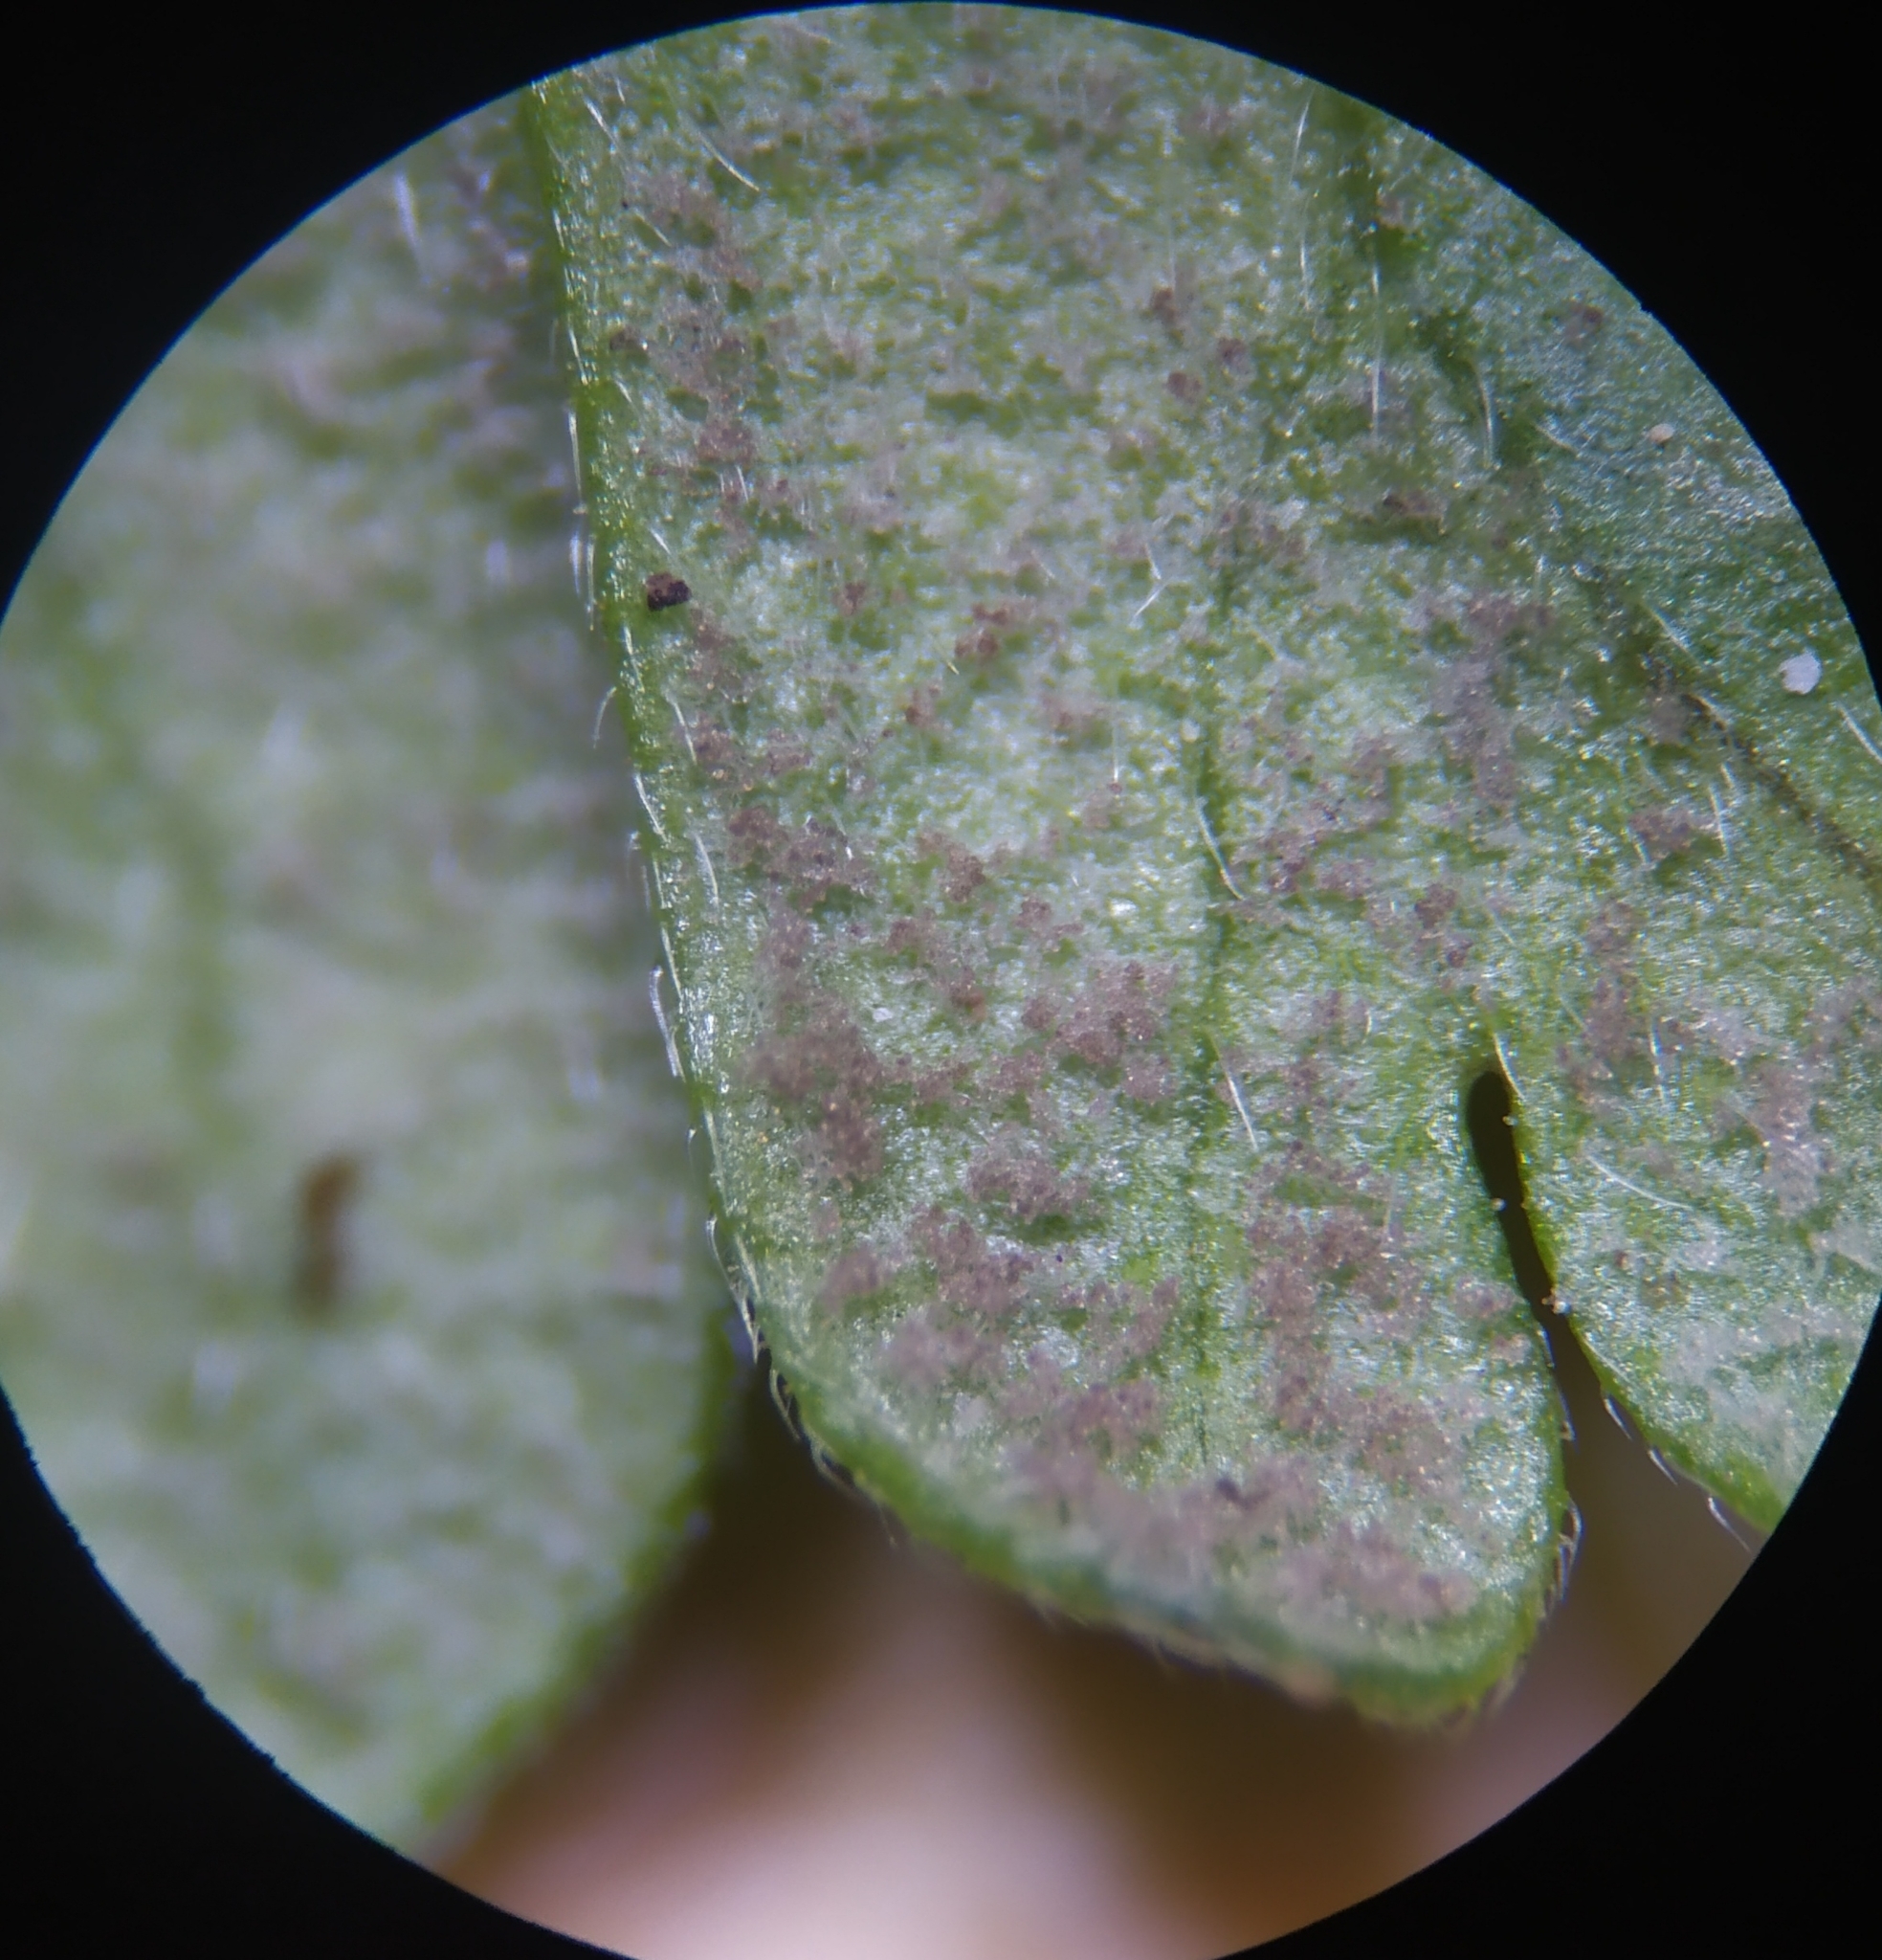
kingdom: Chromista
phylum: Oomycota
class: Peronosporea
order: Peronosporales
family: Peronosporaceae
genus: Peronospora
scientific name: Peronospora conglomerata
